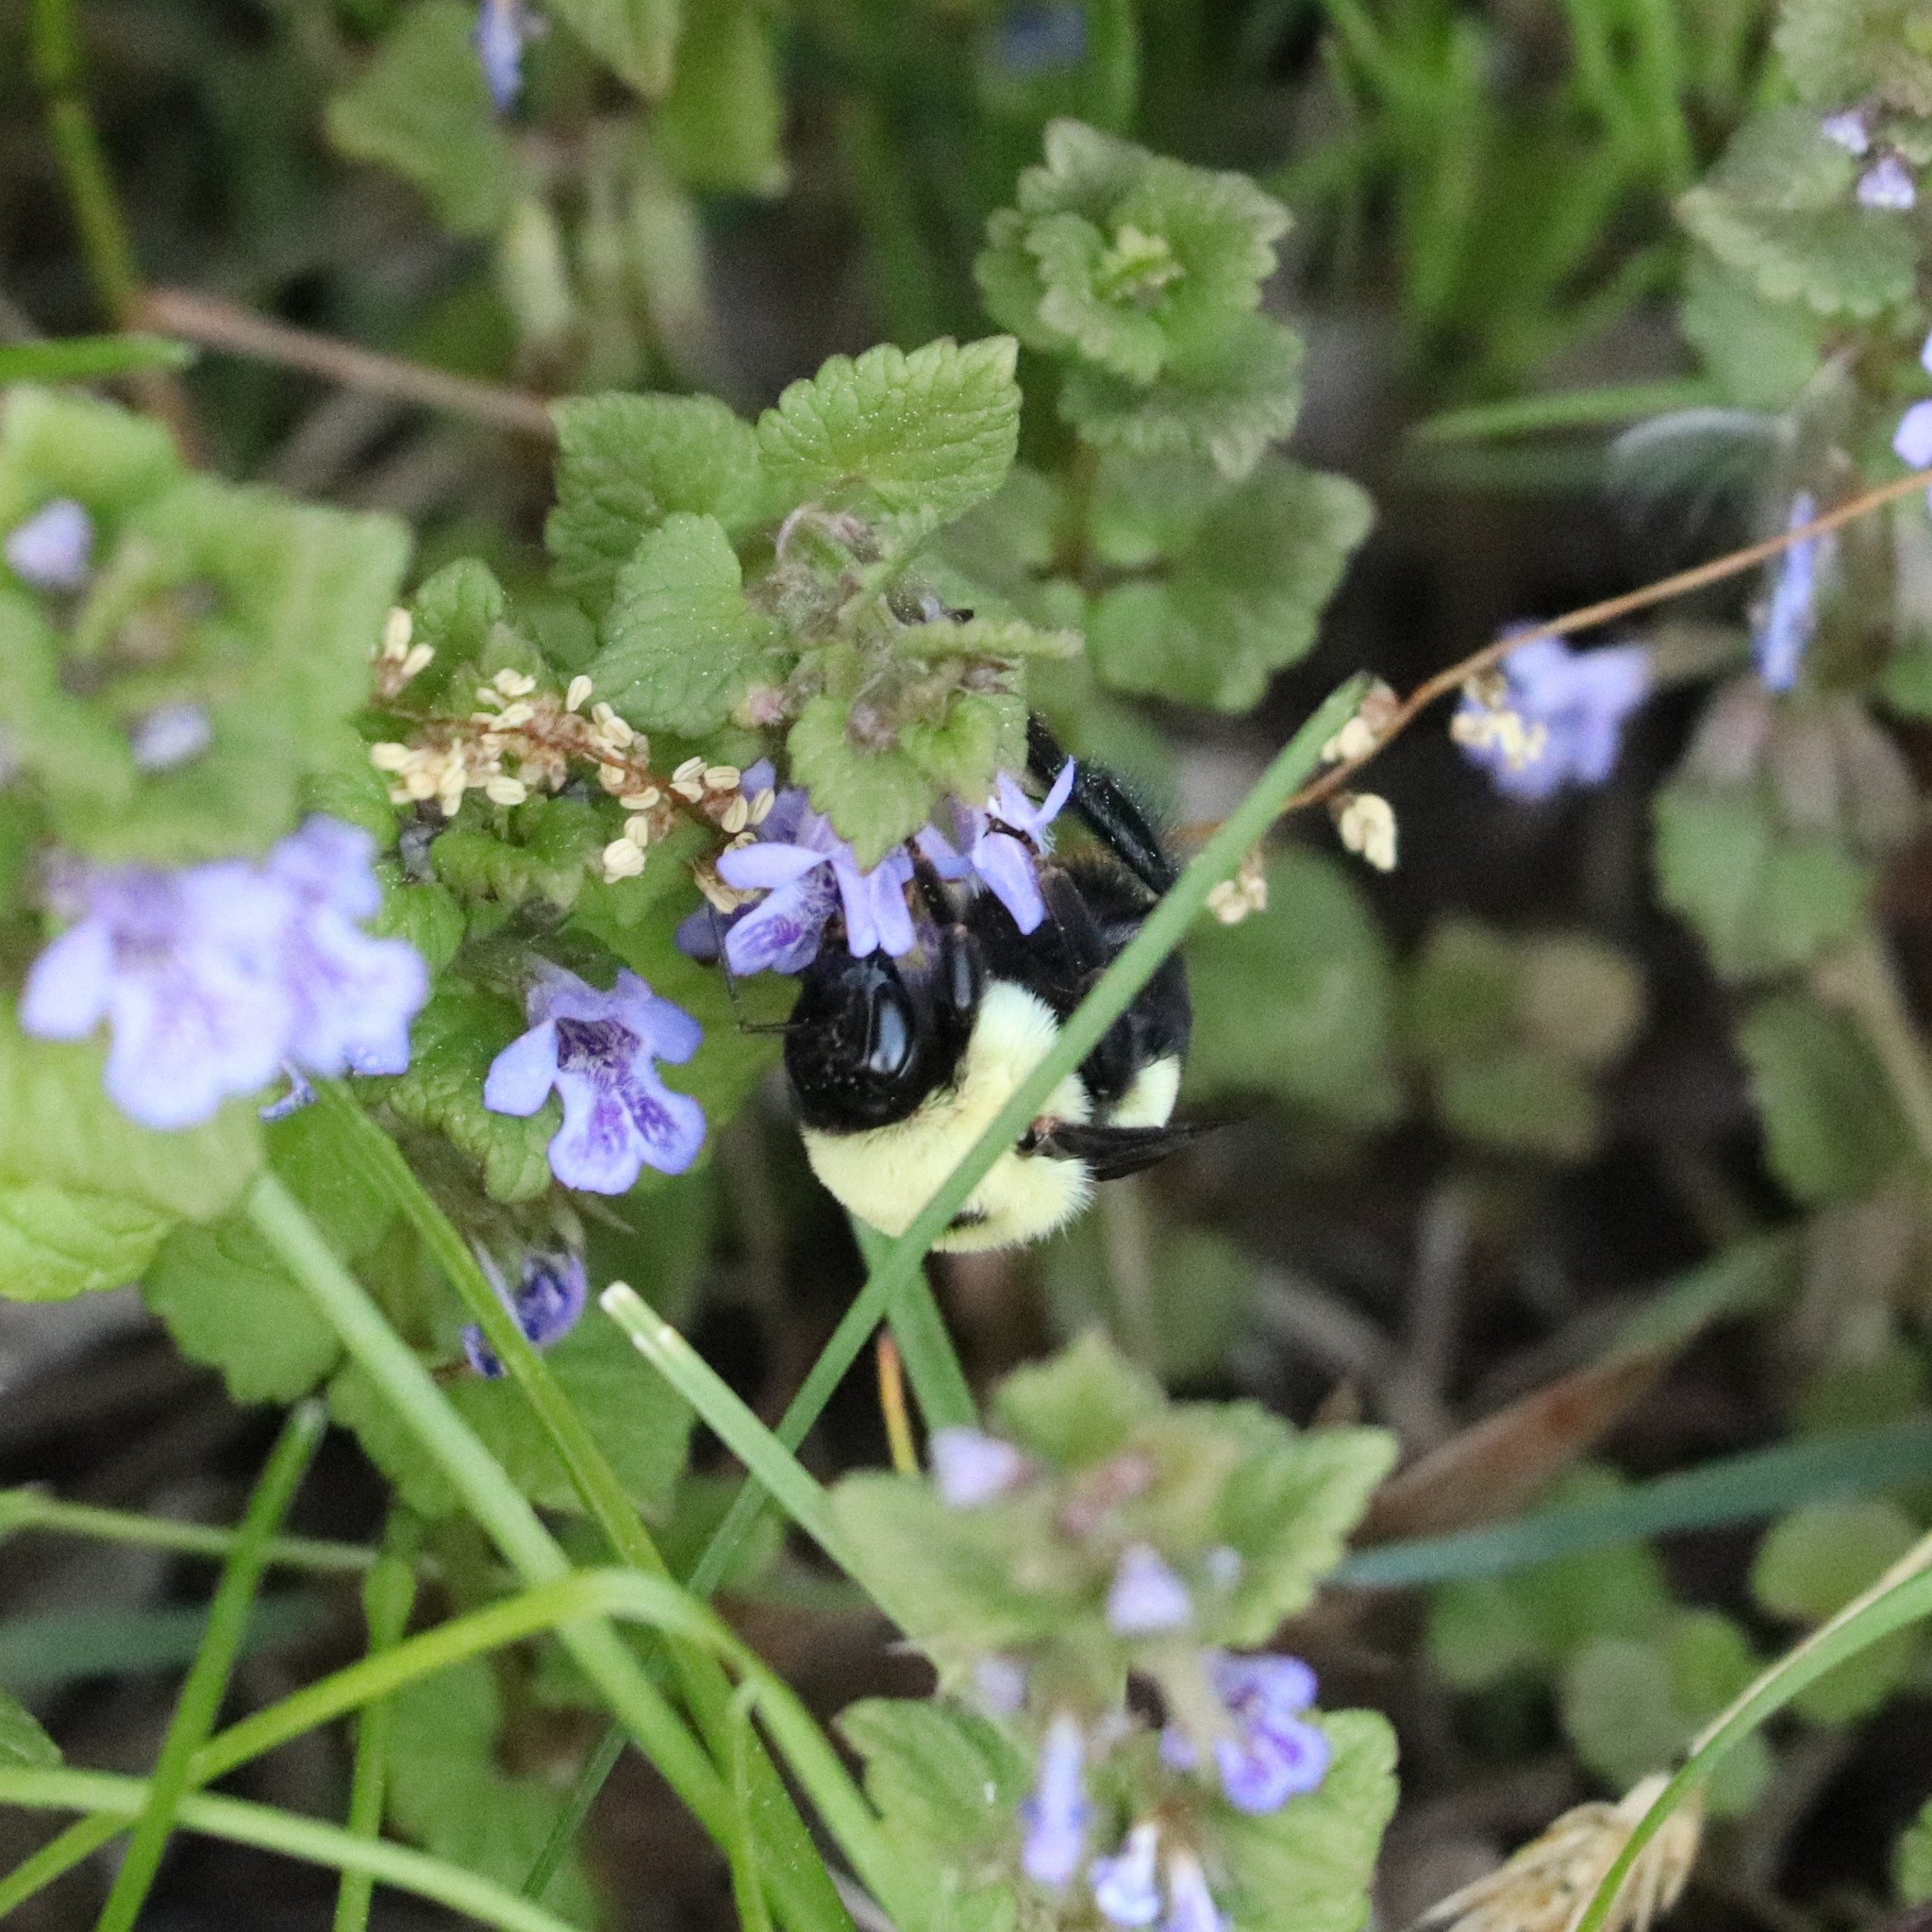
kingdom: Animalia
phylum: Arthropoda
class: Insecta
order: Hymenoptera
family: Apidae
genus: Bombus
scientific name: Bombus griseocollis
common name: Brown-belted bumble bee
